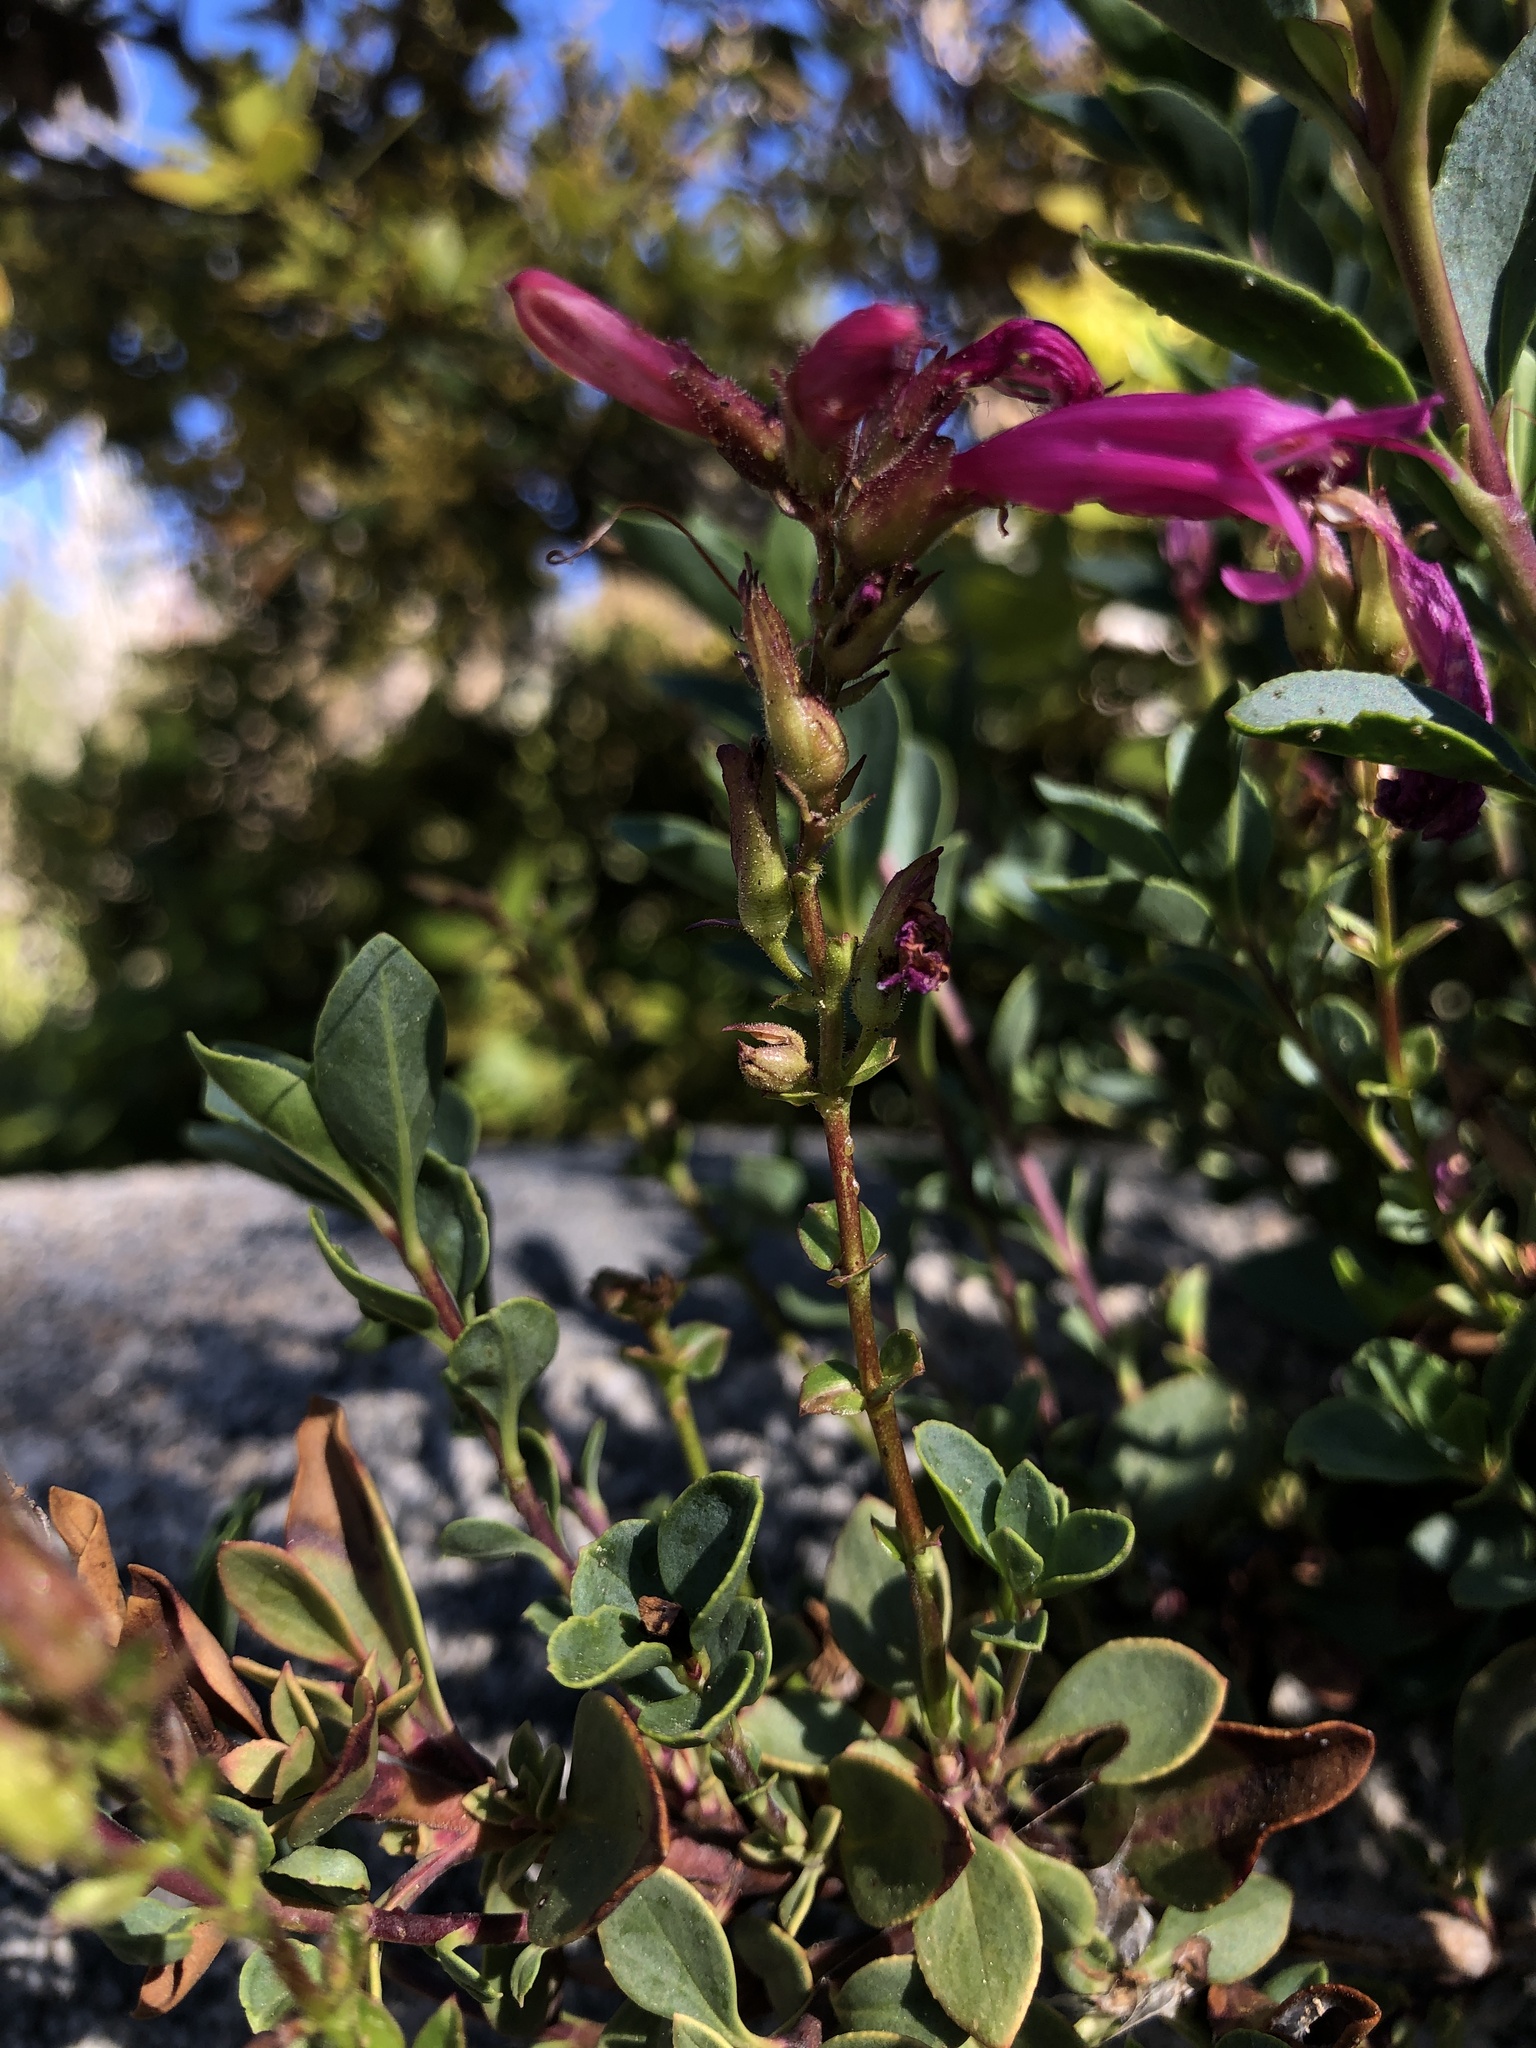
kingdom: Plantae
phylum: Tracheophyta
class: Magnoliopsida
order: Lamiales
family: Plantaginaceae
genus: Penstemon
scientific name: Penstemon newberryi
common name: Mountain-pride
